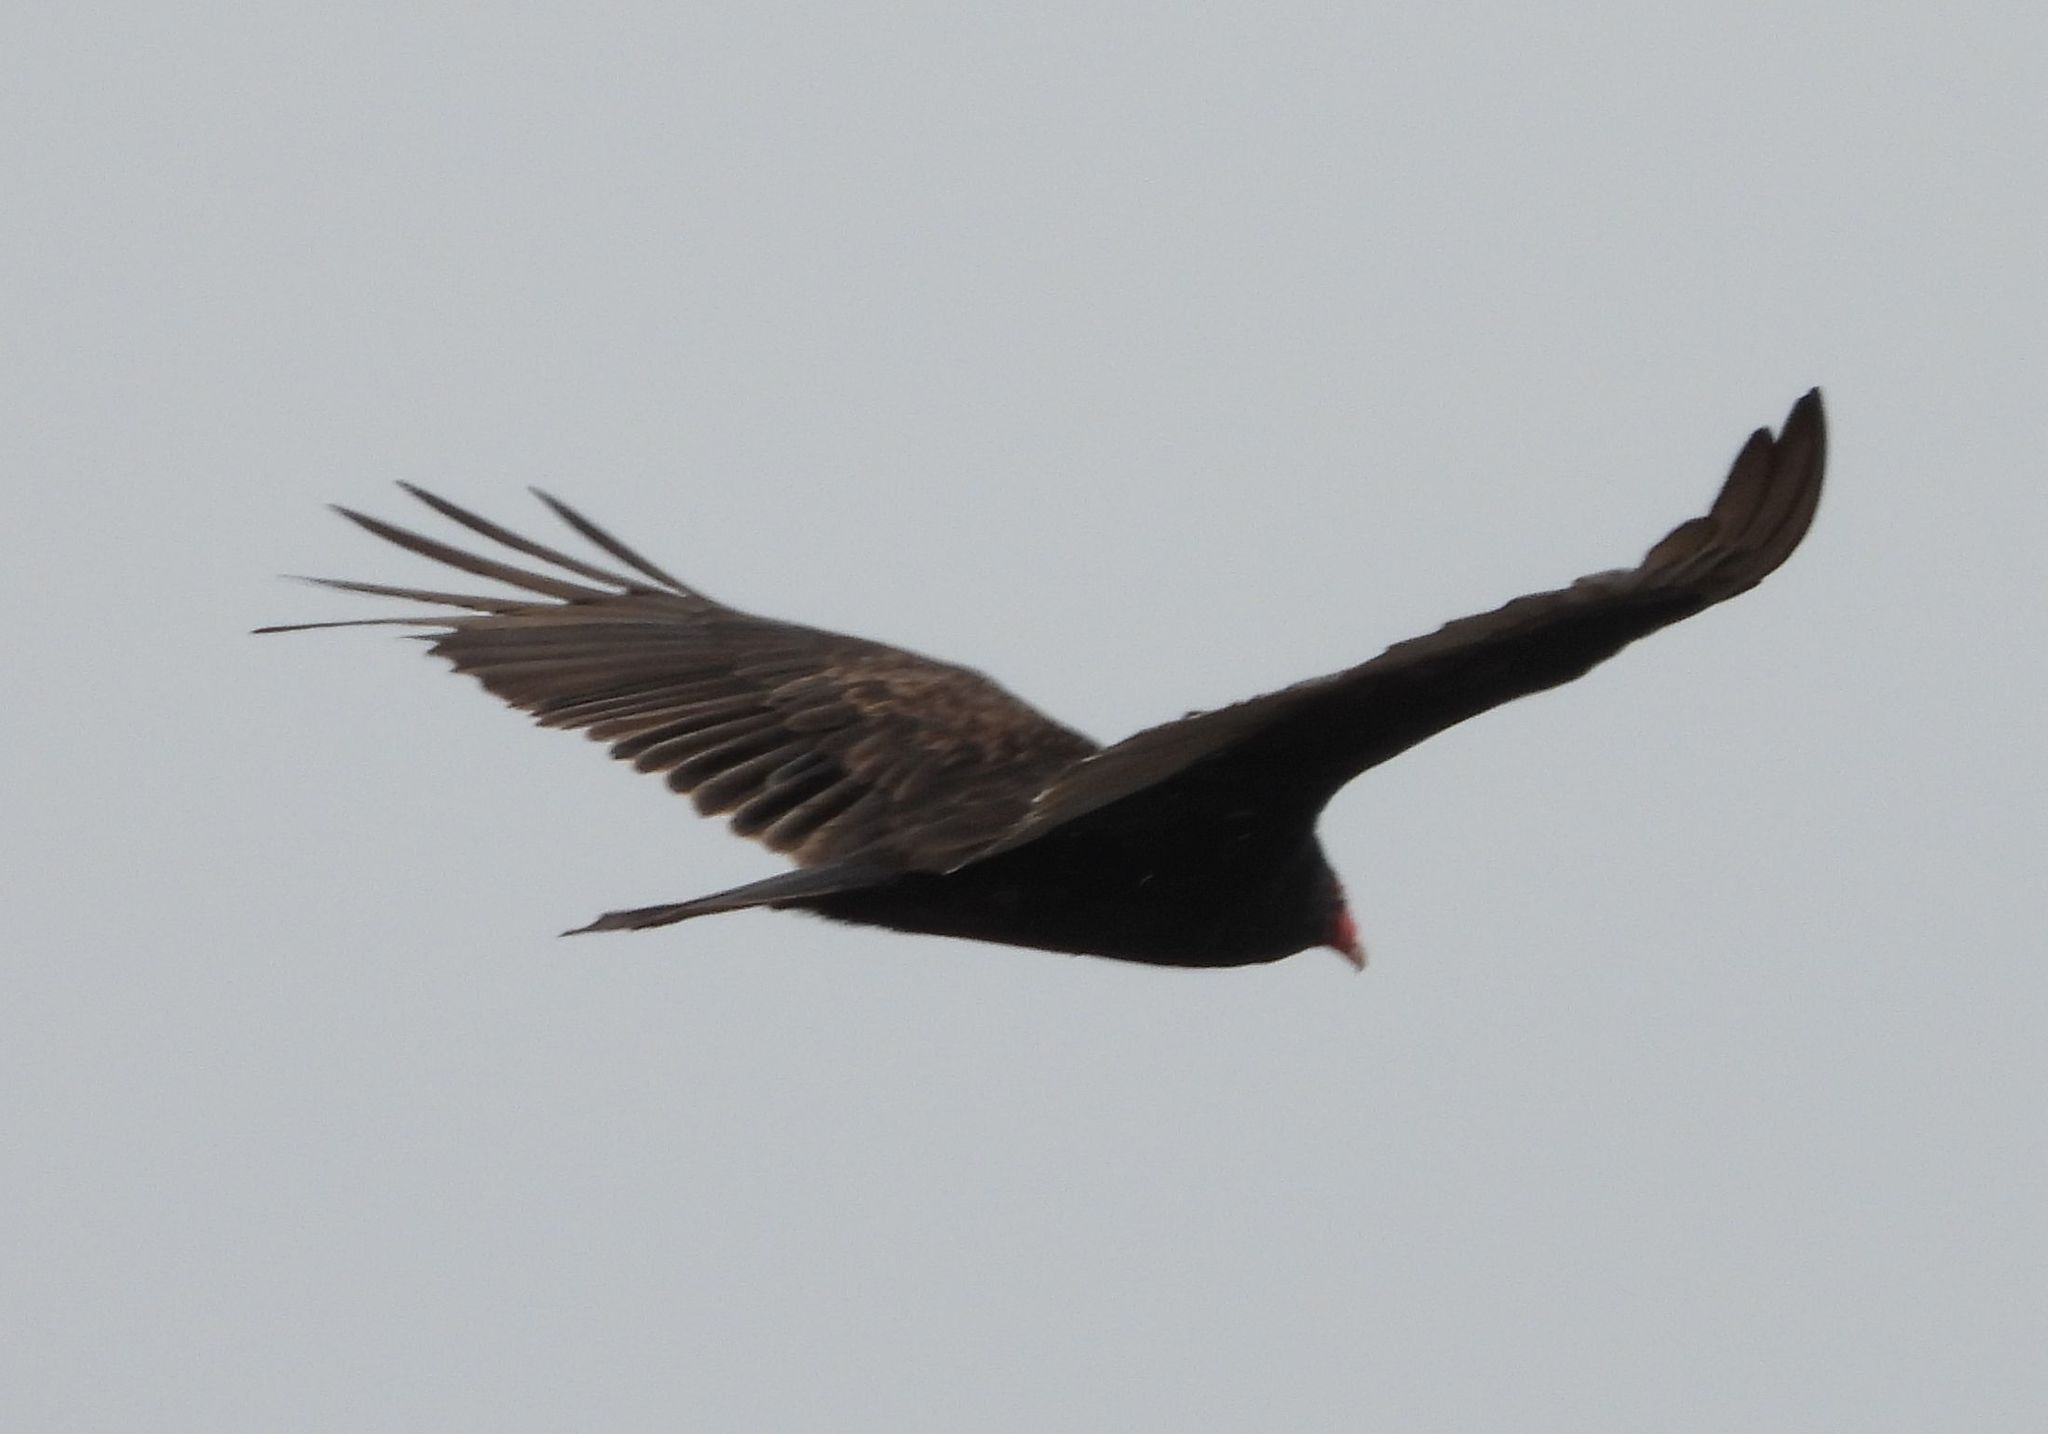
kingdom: Animalia
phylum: Chordata
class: Aves
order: Accipitriformes
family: Cathartidae
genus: Cathartes
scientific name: Cathartes aura
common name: Turkey vulture
